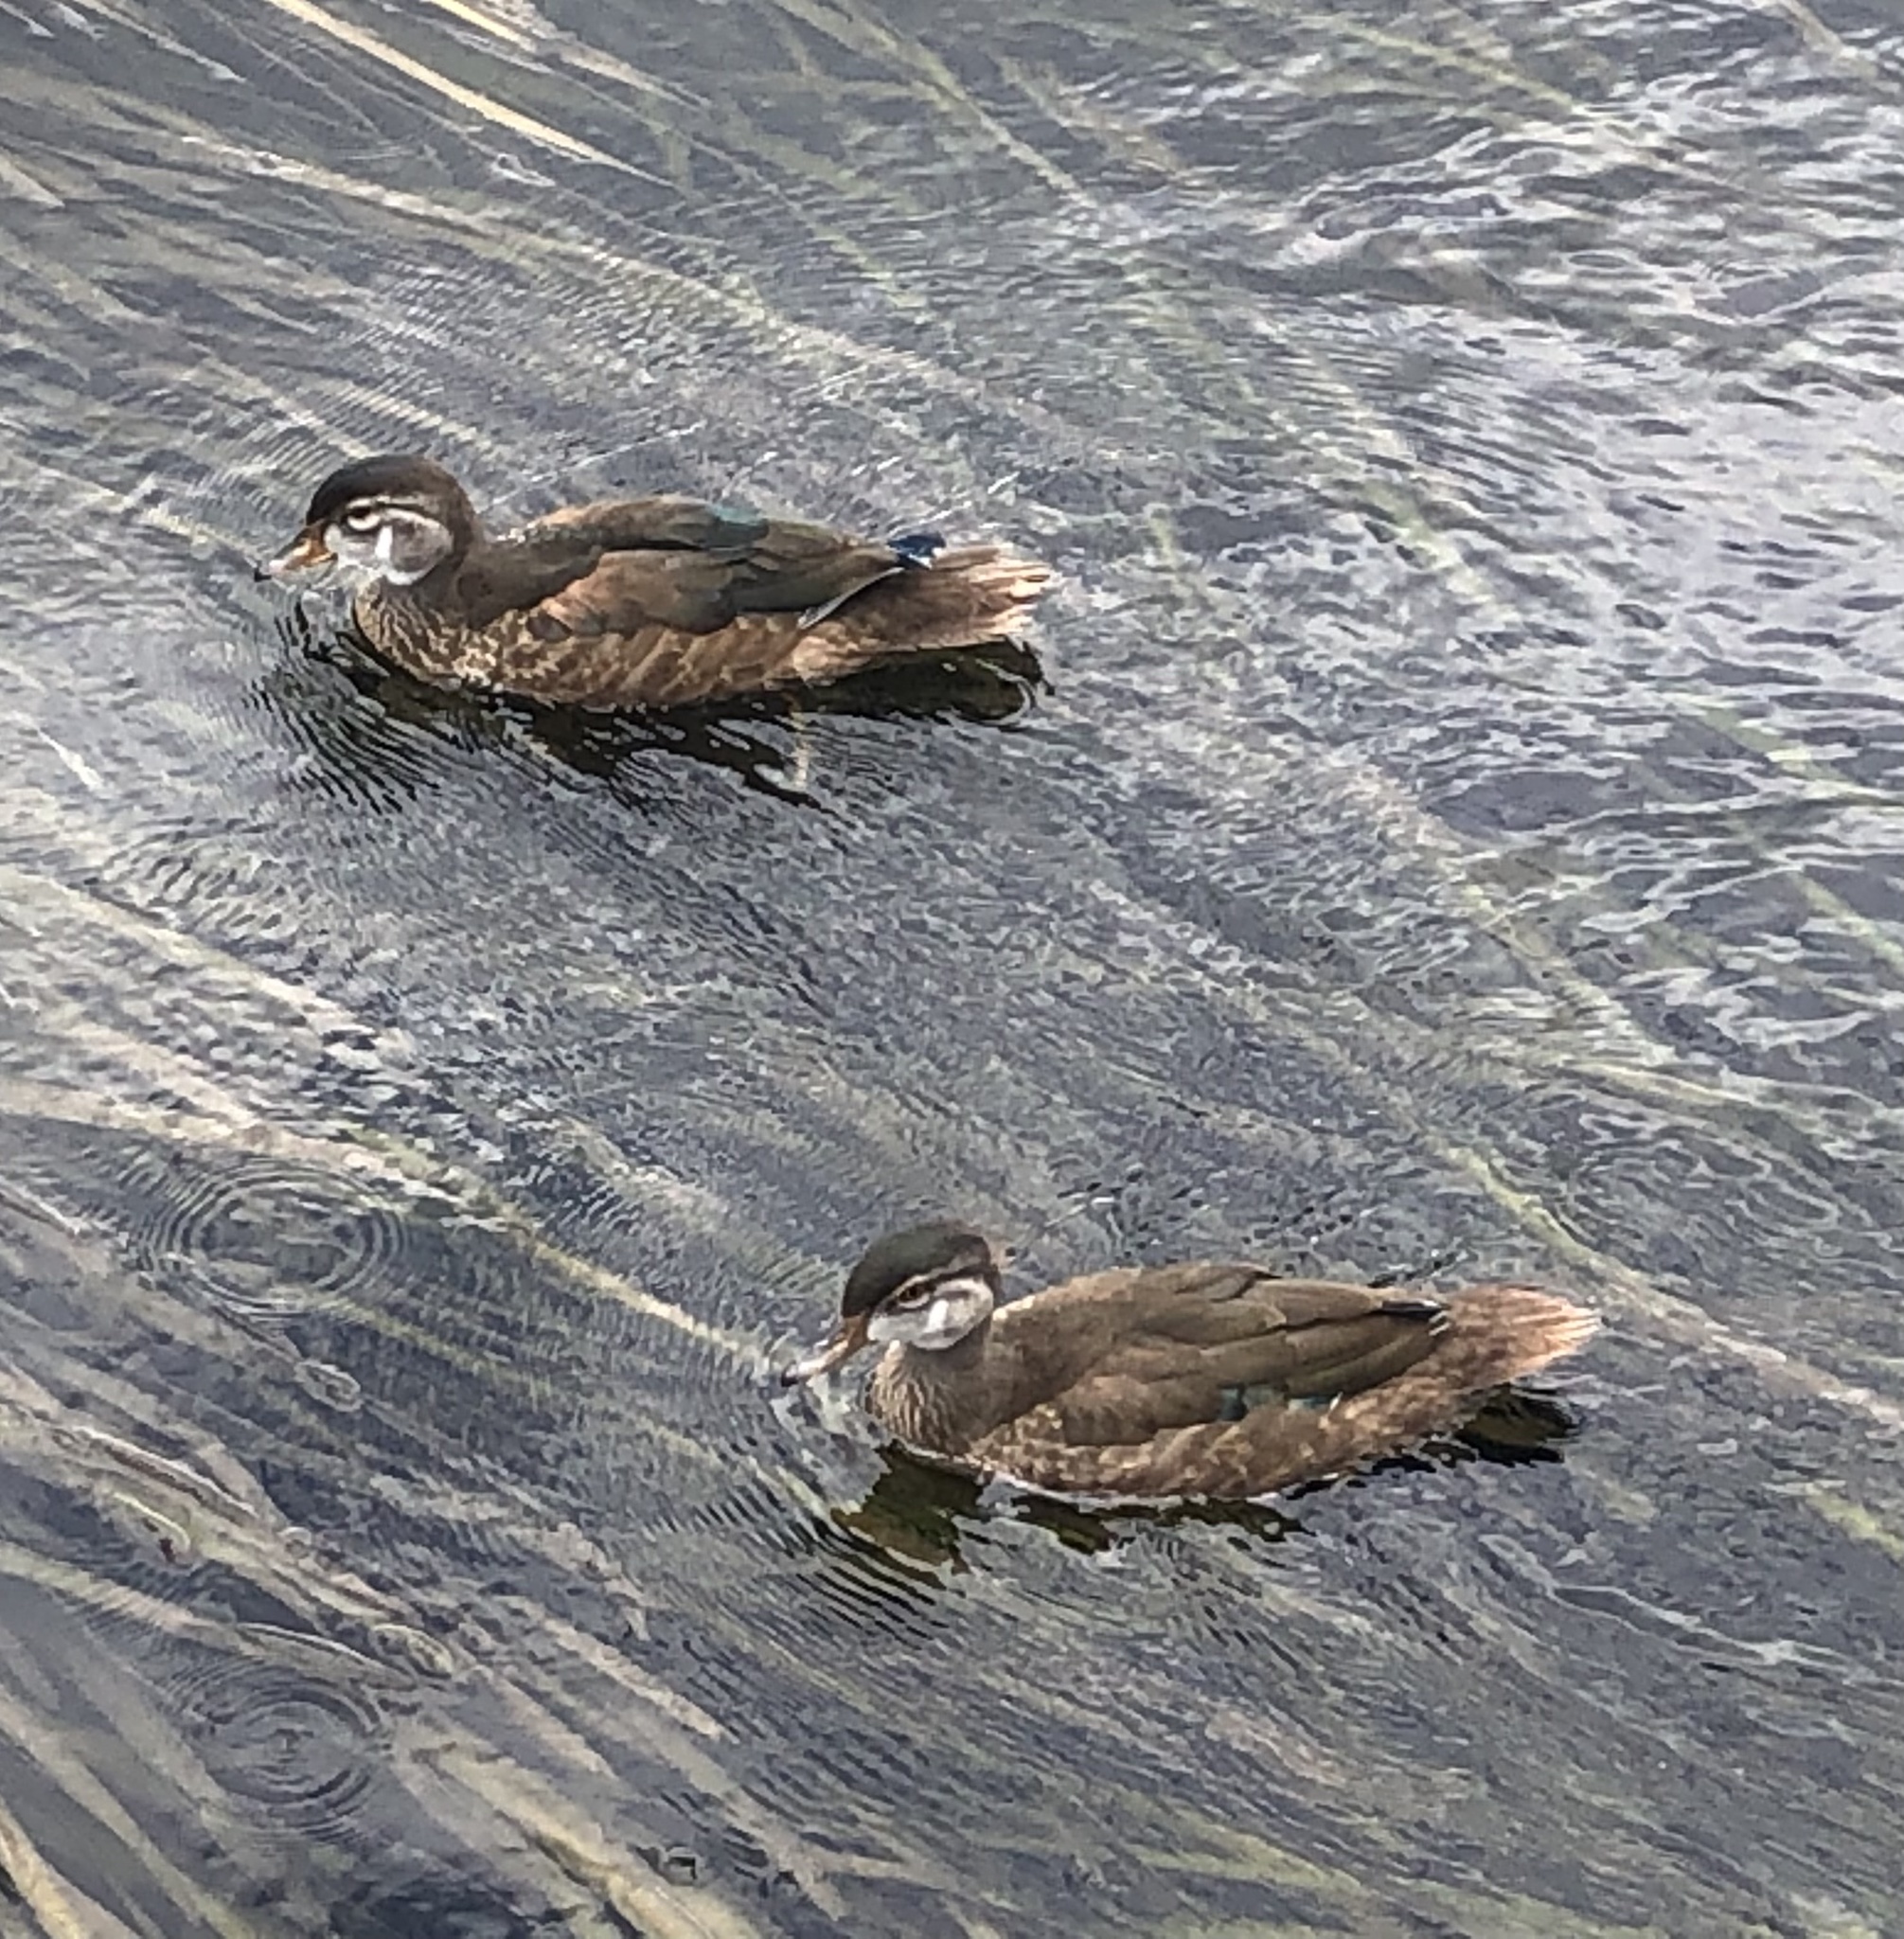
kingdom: Animalia
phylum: Chordata
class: Aves
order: Anseriformes
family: Anatidae
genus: Aix
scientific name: Aix sponsa
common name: Wood duck
